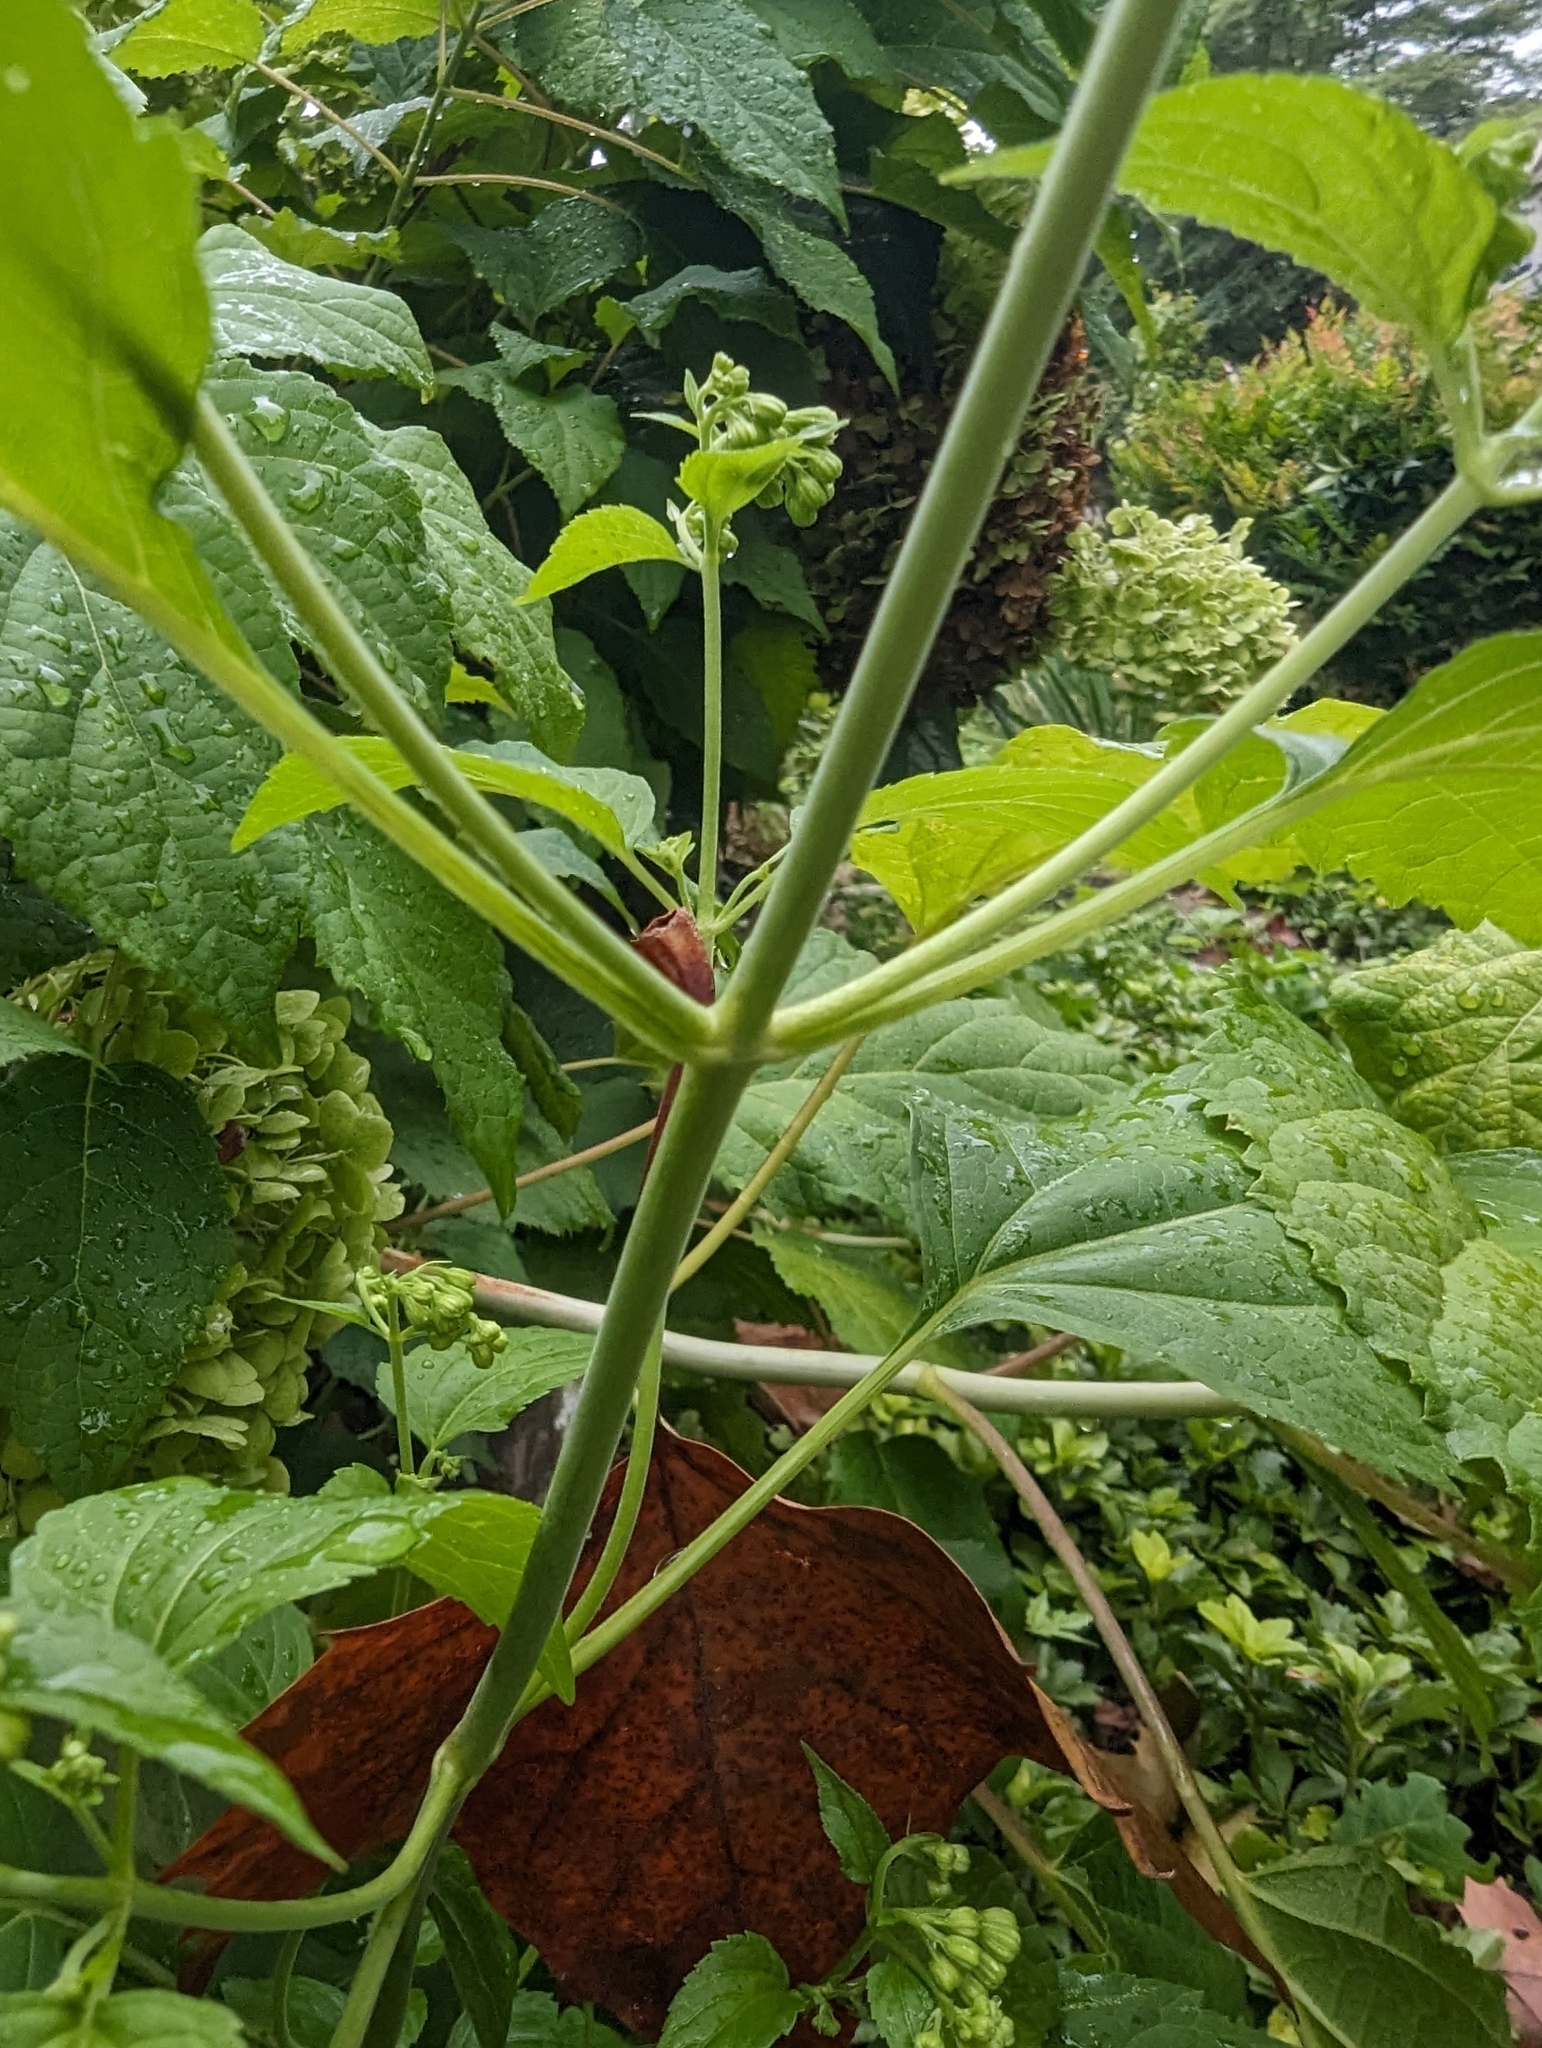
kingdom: Plantae
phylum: Tracheophyta
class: Magnoliopsida
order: Asterales
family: Asteraceae
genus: Ageratina
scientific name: Ageratina altissima
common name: White snakeroot
